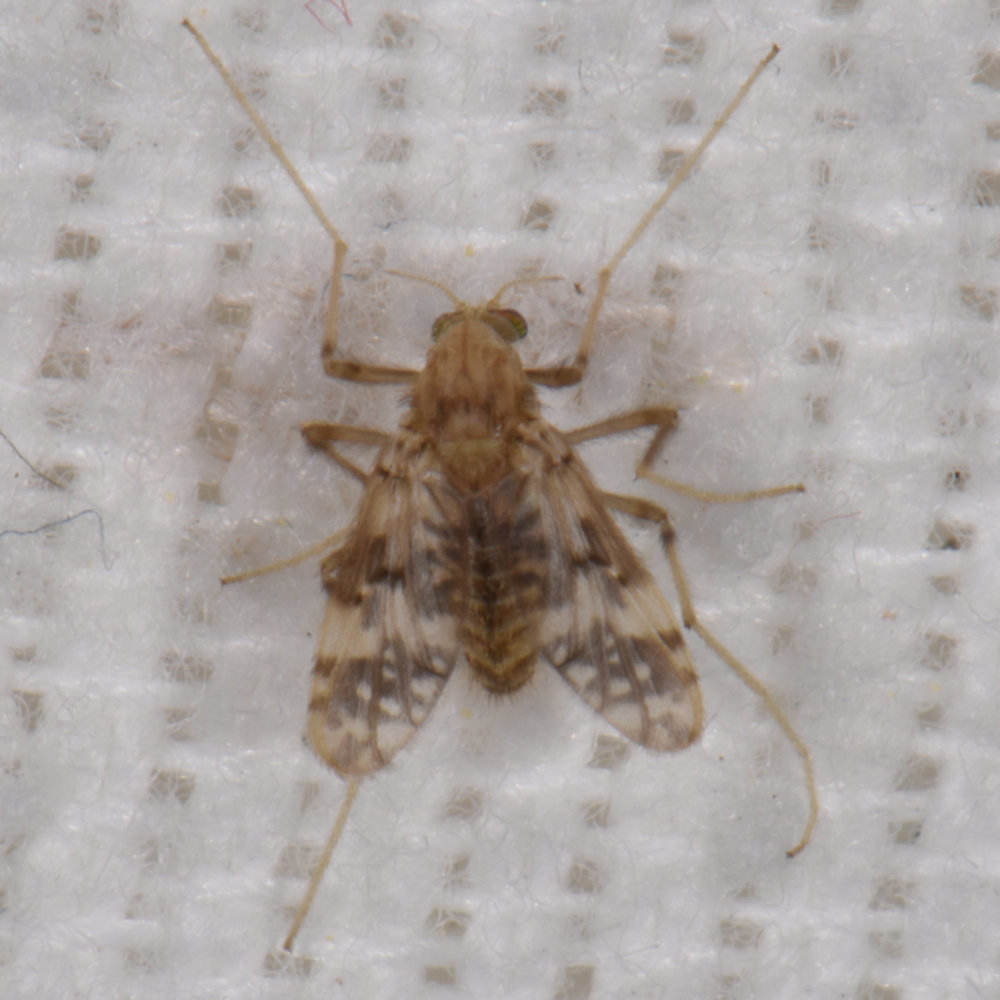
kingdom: Animalia
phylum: Arthropoda
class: Insecta
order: Diptera
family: Chironomidae
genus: Psectrotanypus
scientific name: Psectrotanypus dyari
